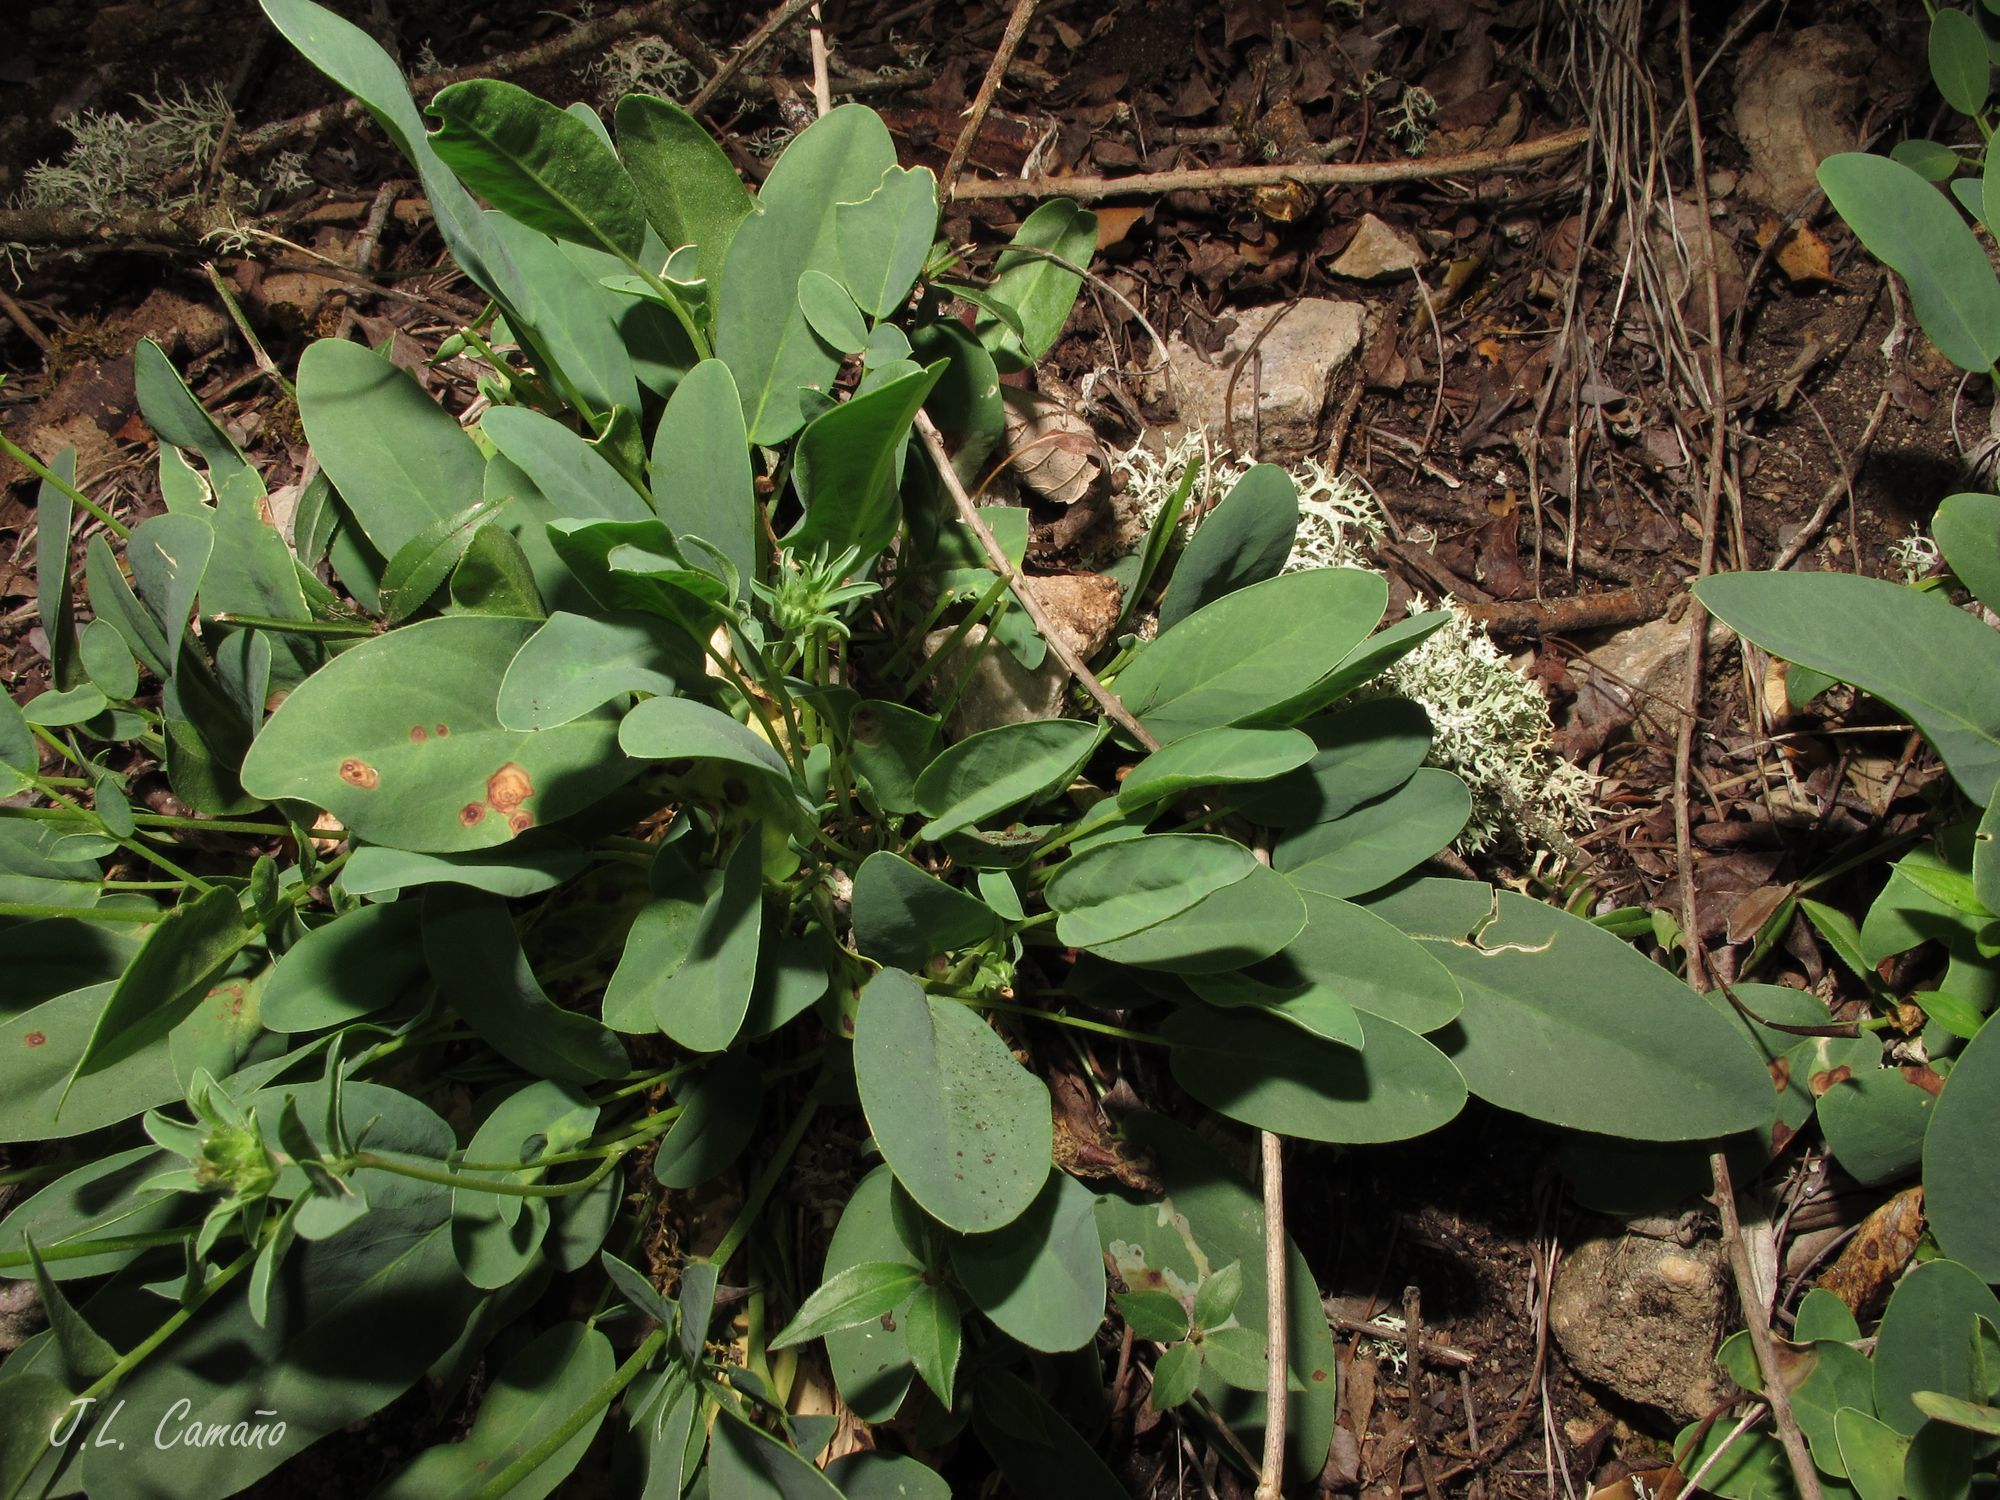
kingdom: Plantae
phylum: Tracheophyta
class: Magnoliopsida
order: Fabales
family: Fabaceae
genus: Anthyllis
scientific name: Anthyllis vulneraria
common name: Kidney vetch
